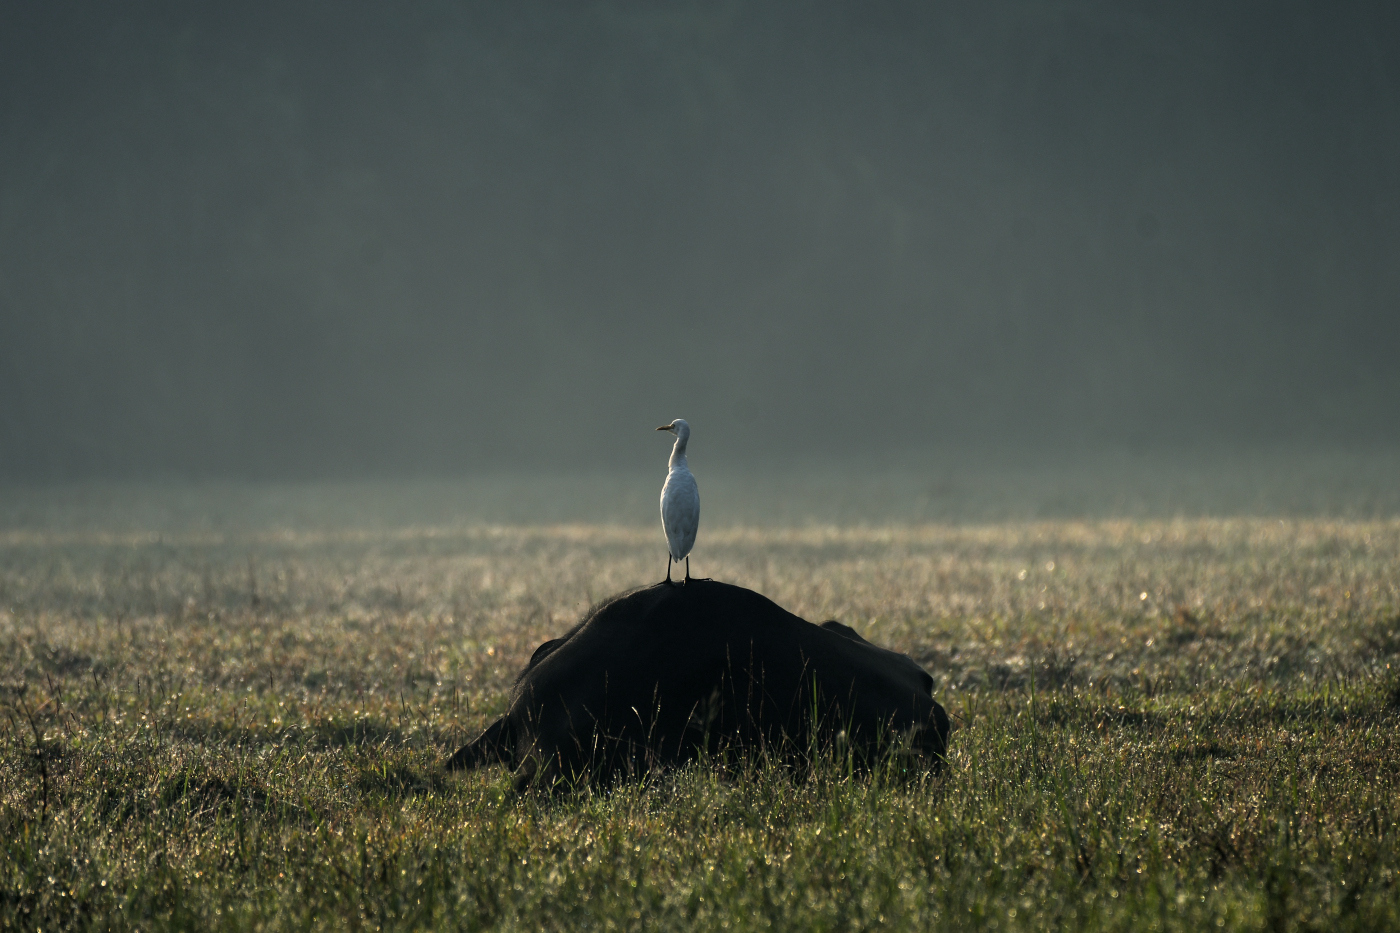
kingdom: Animalia
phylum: Chordata
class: Aves
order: Pelecaniformes
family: Ardeidae
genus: Bubulcus
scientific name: Bubulcus coromandus
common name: Eastern cattle egret
